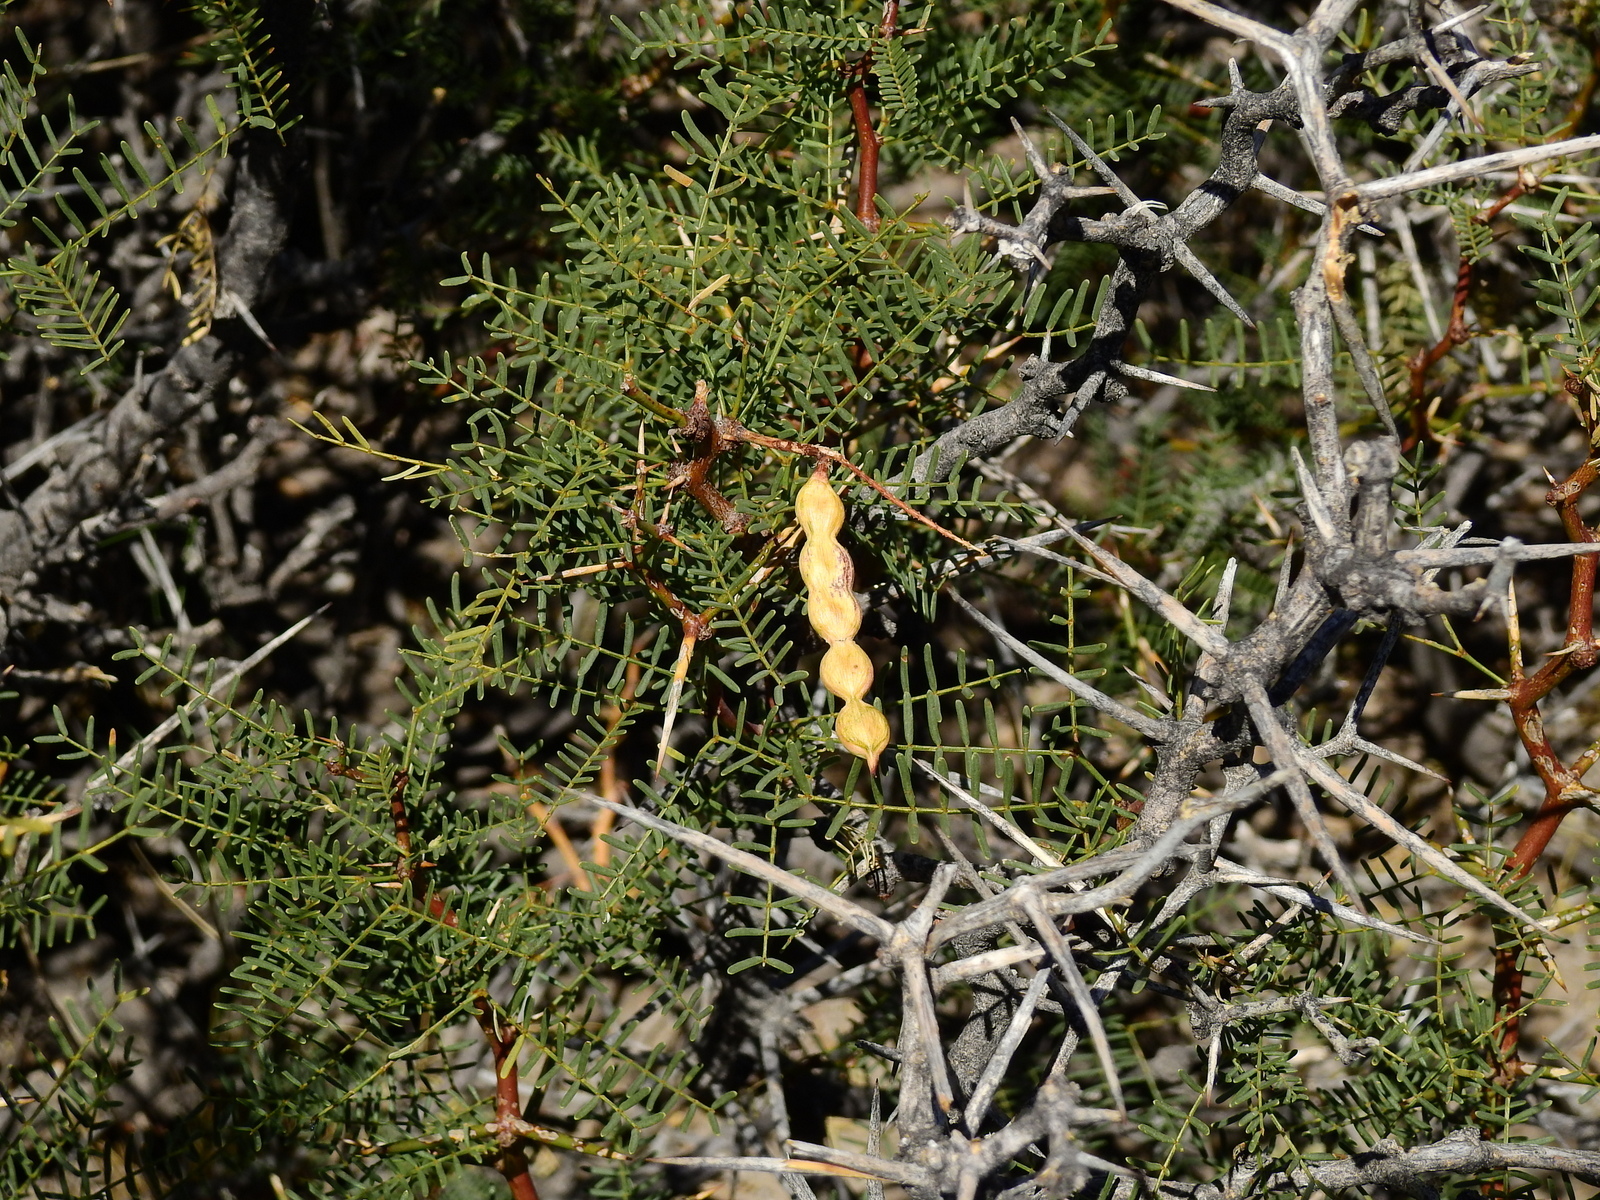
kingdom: Plantae
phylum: Tracheophyta
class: Magnoliopsida
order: Fabales
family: Fabaceae
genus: Prosopis
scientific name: Prosopis flexuosa
